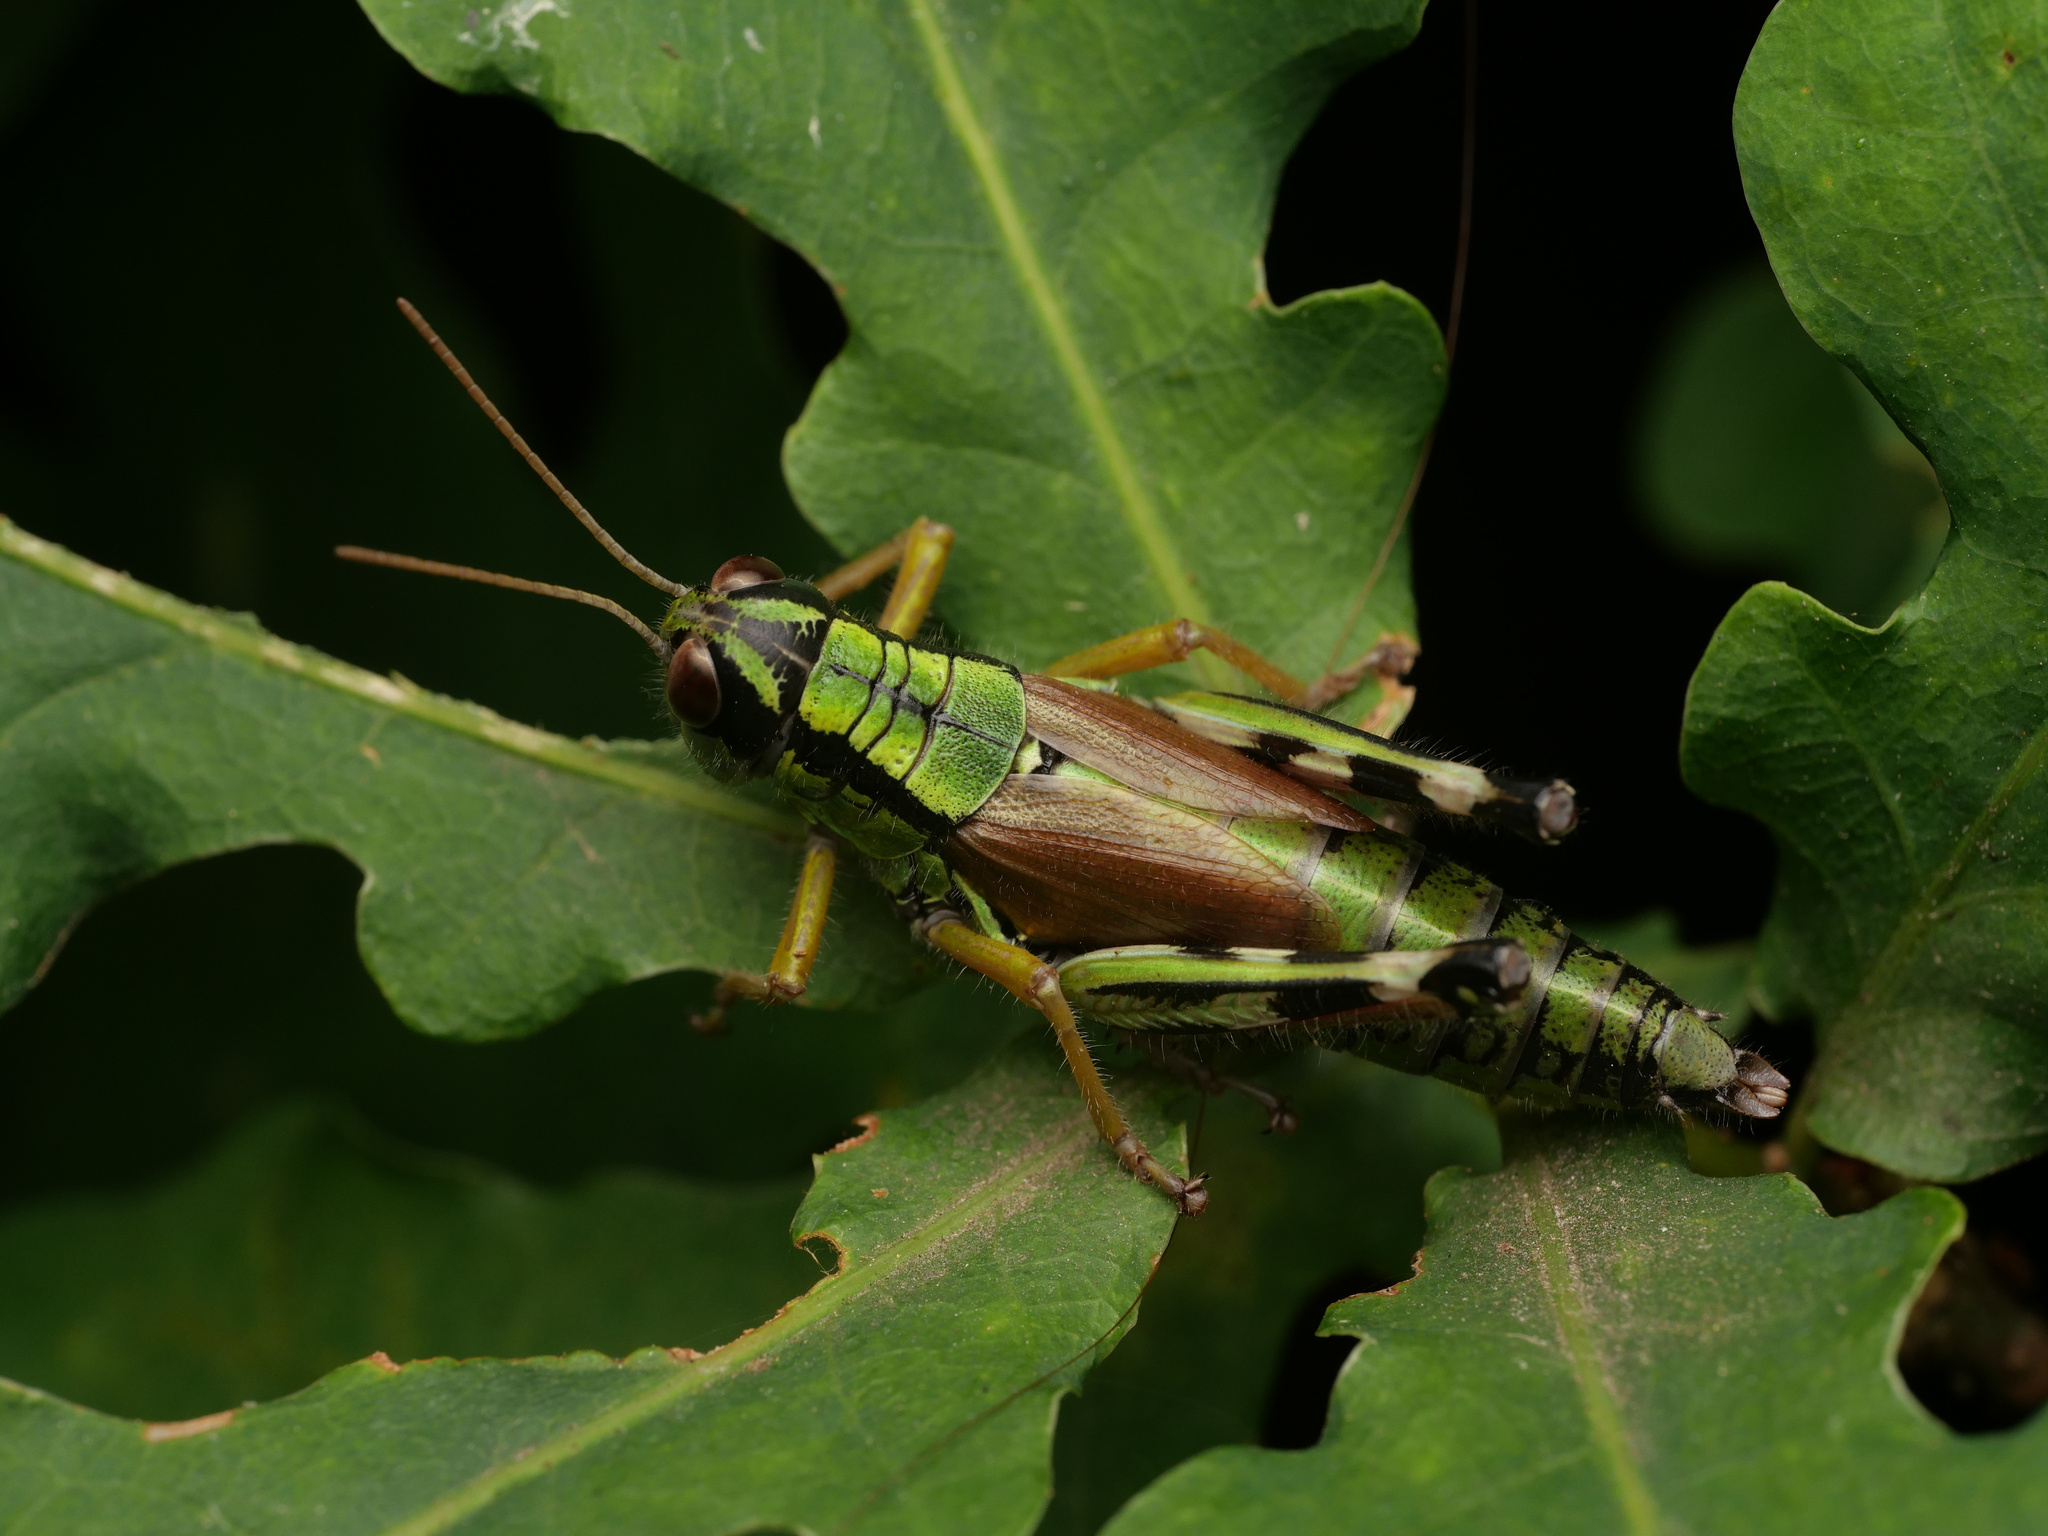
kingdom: Animalia
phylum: Arthropoda
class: Insecta
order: Orthoptera
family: Acrididae
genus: Miramella
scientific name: Miramella alpina
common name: Green mountain grasshopper
